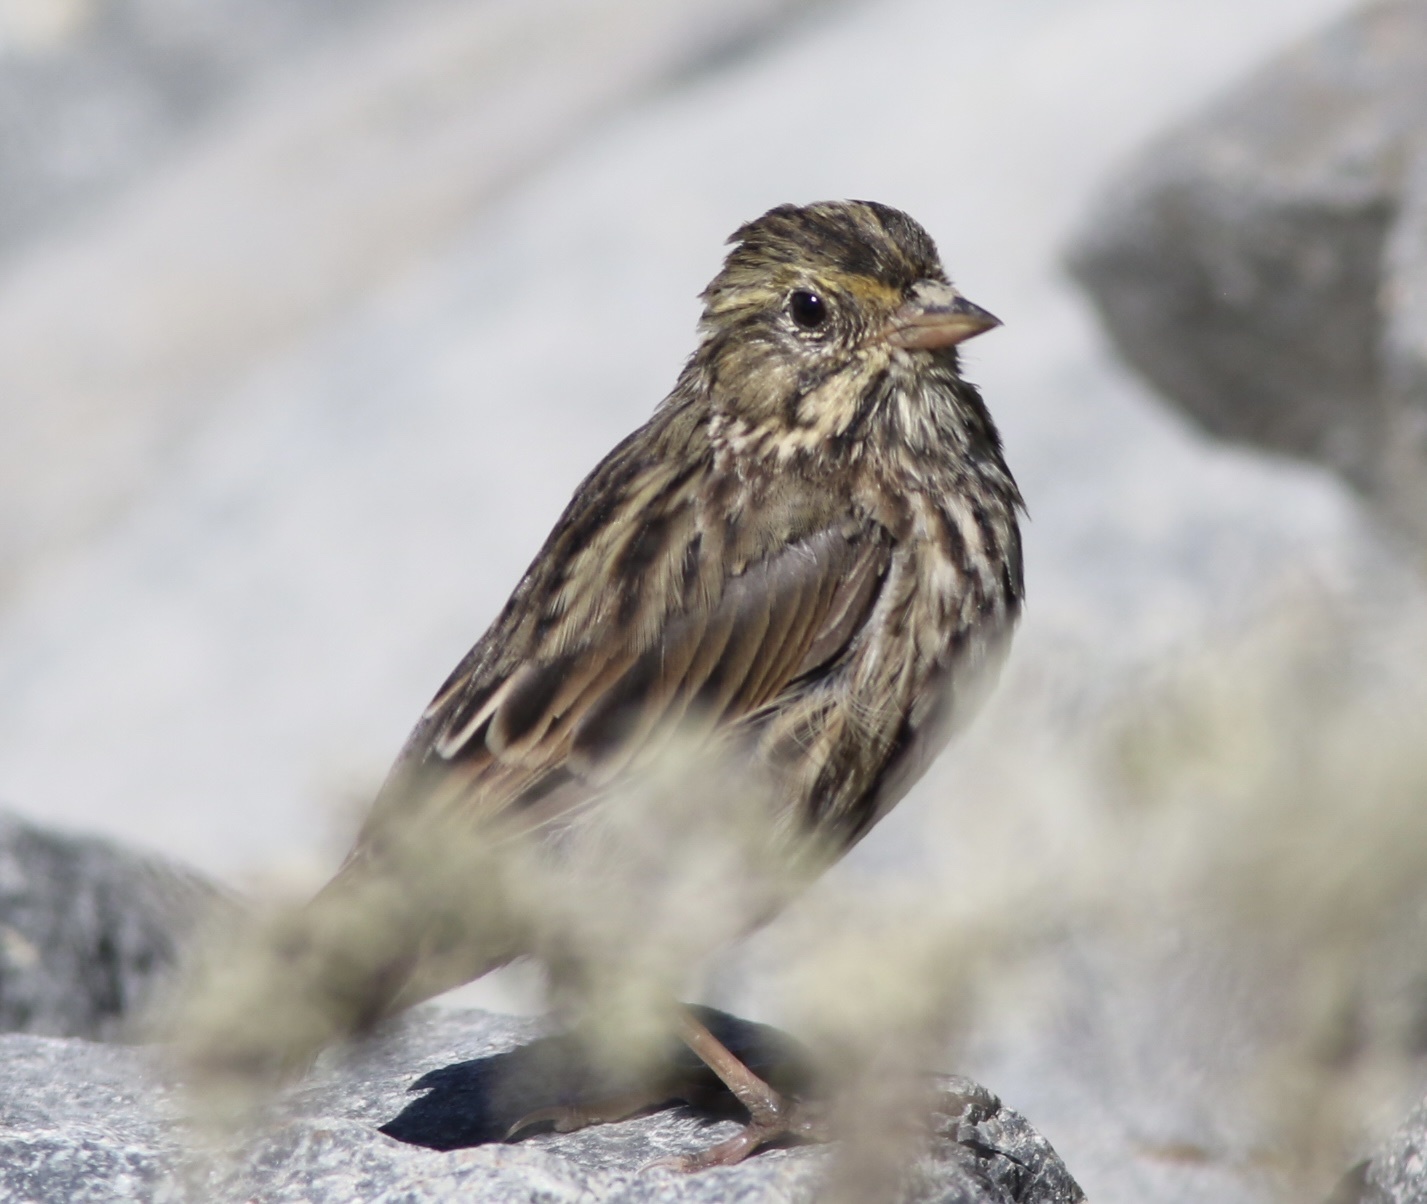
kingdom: Animalia
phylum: Chordata
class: Aves
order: Passeriformes
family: Passerellidae
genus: Passerculus
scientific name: Passerculus sandwichensis
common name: Savannah sparrow
